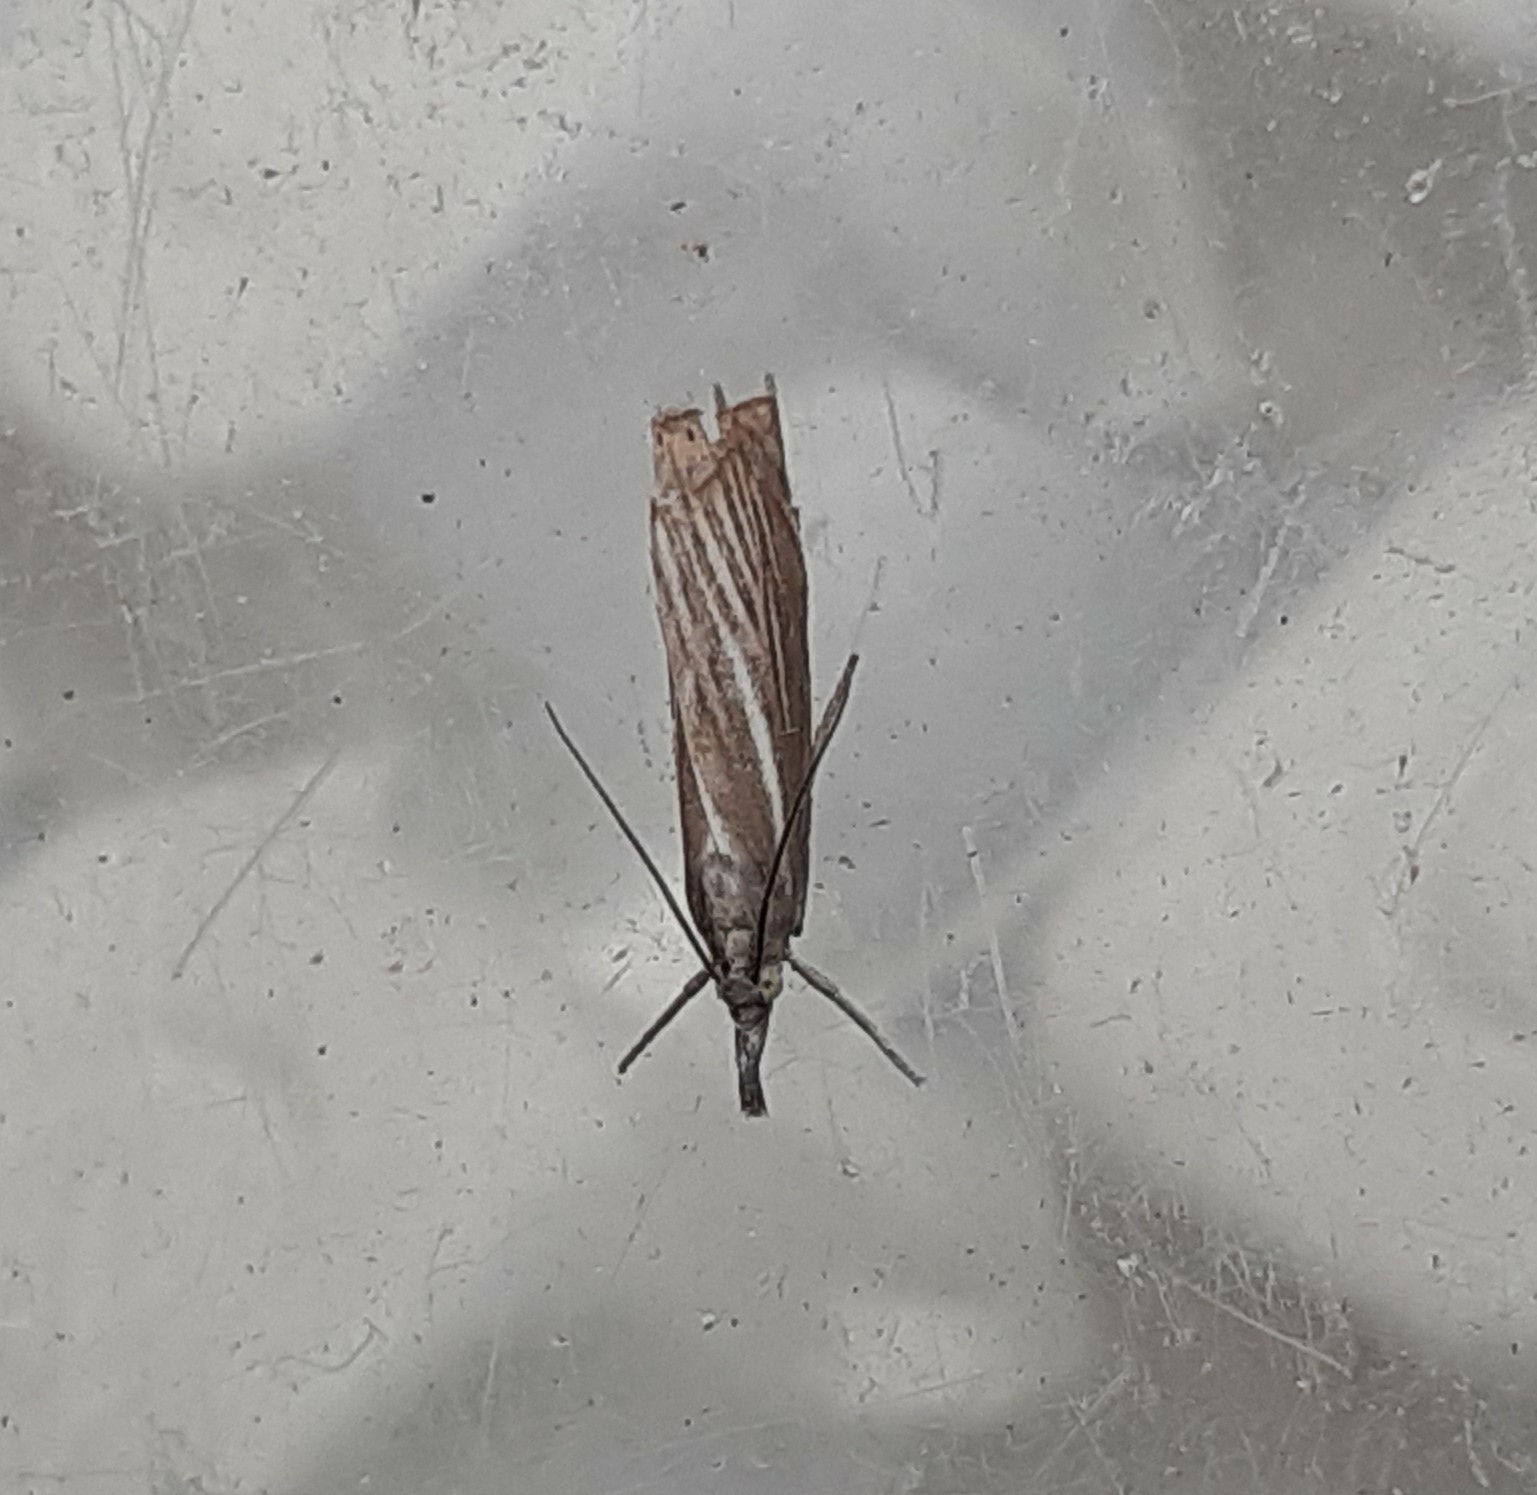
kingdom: Animalia
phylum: Arthropoda
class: Insecta
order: Lepidoptera
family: Crambidae
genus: Chrysoteuchia
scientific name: Chrysoteuchia culmella
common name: Garden grass-veneer
